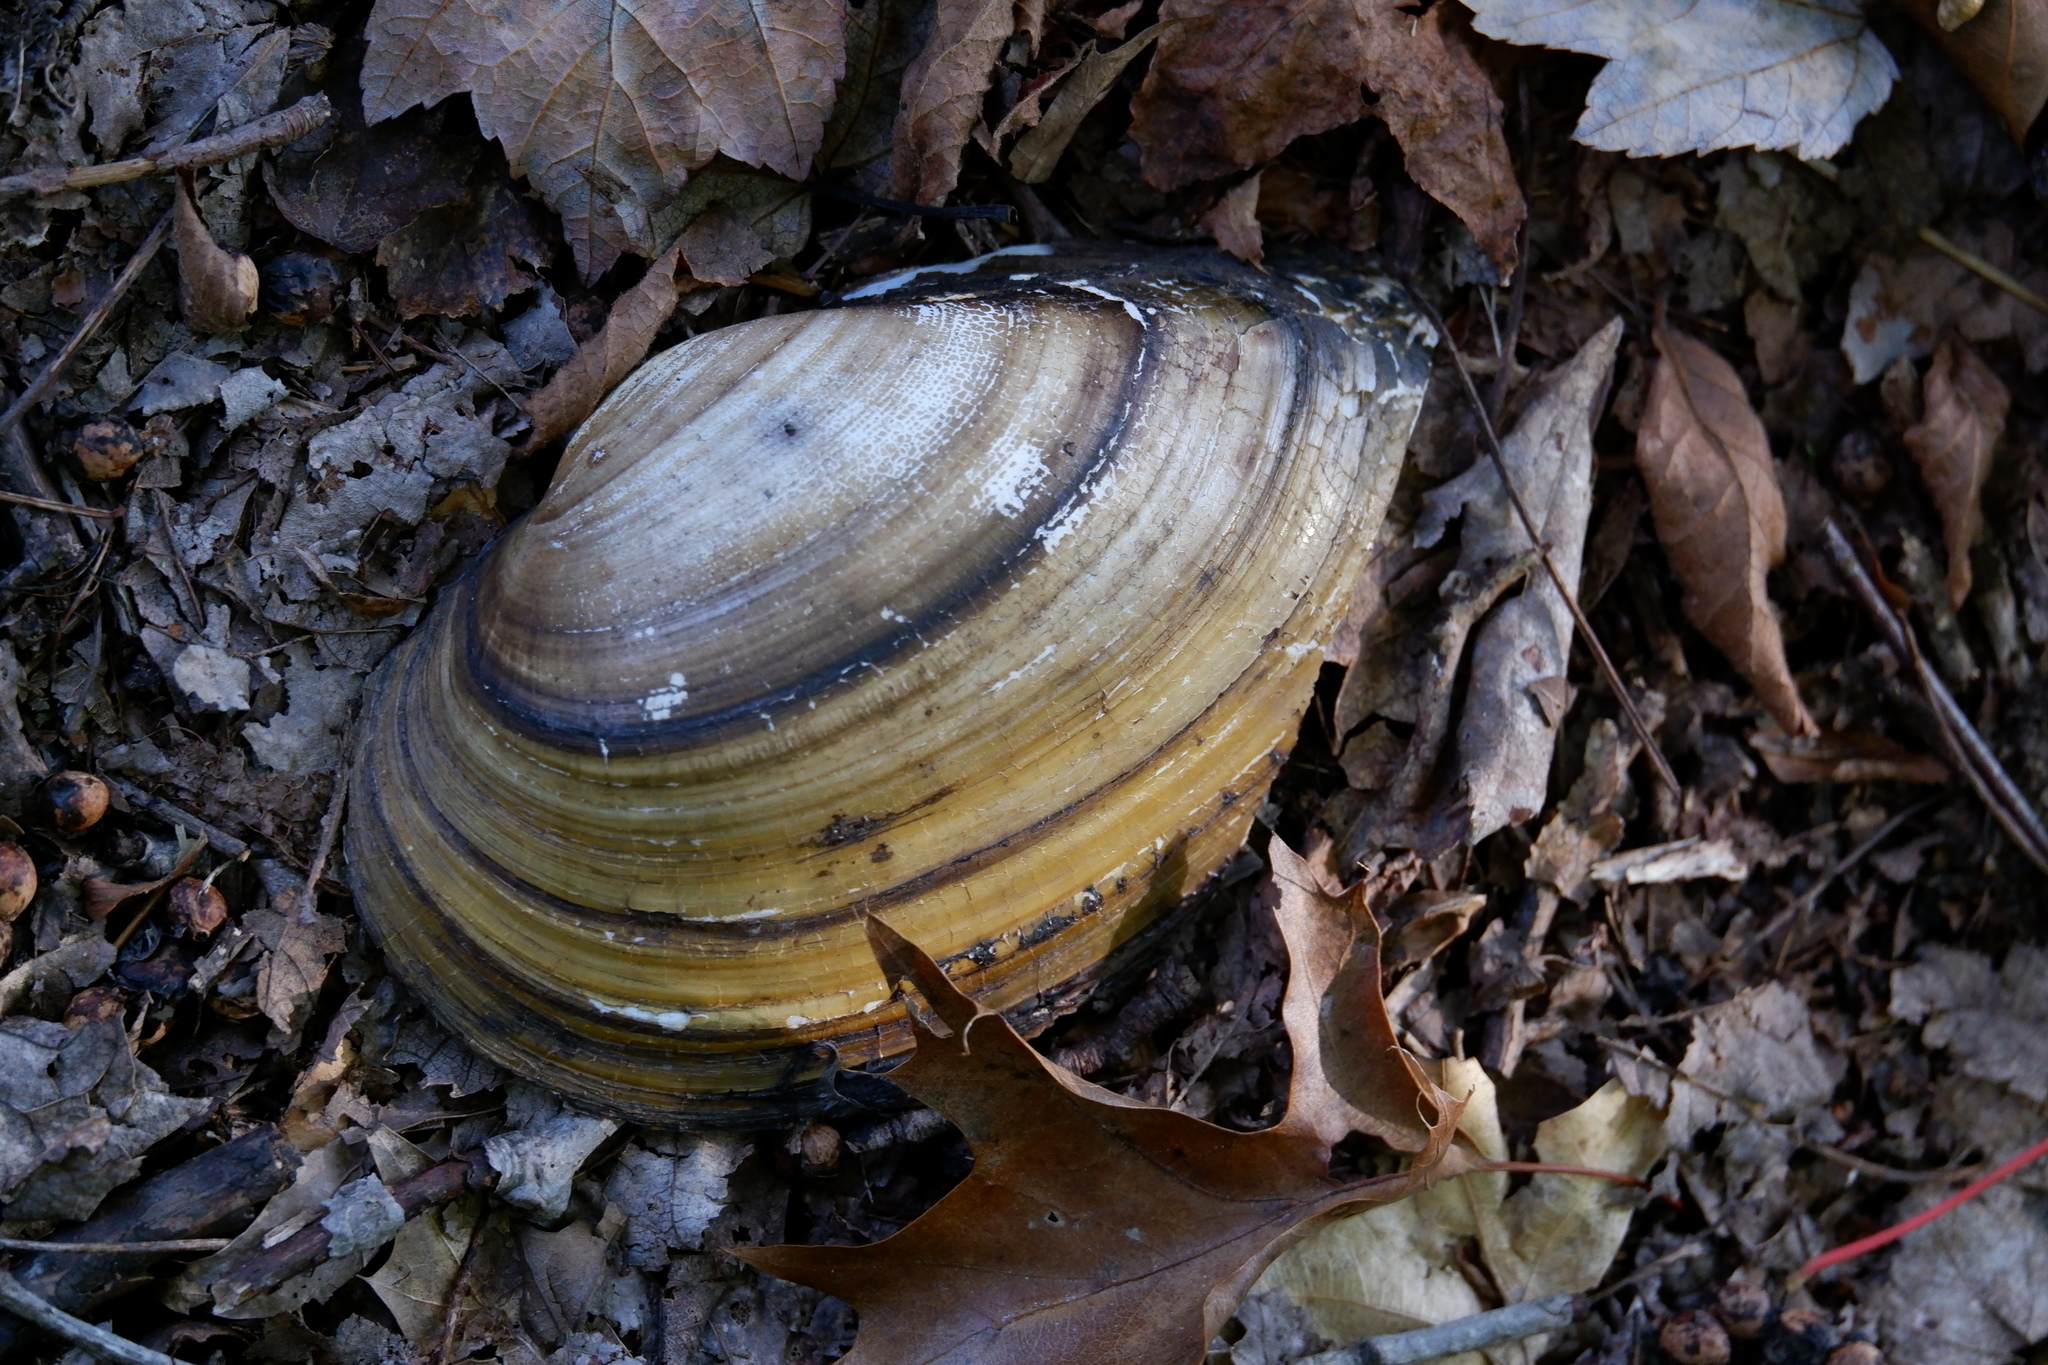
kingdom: Animalia
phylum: Mollusca
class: Bivalvia
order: Unionida
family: Unionidae
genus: Pyganodon
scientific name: Pyganodon cataracta
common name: Eastern floater
